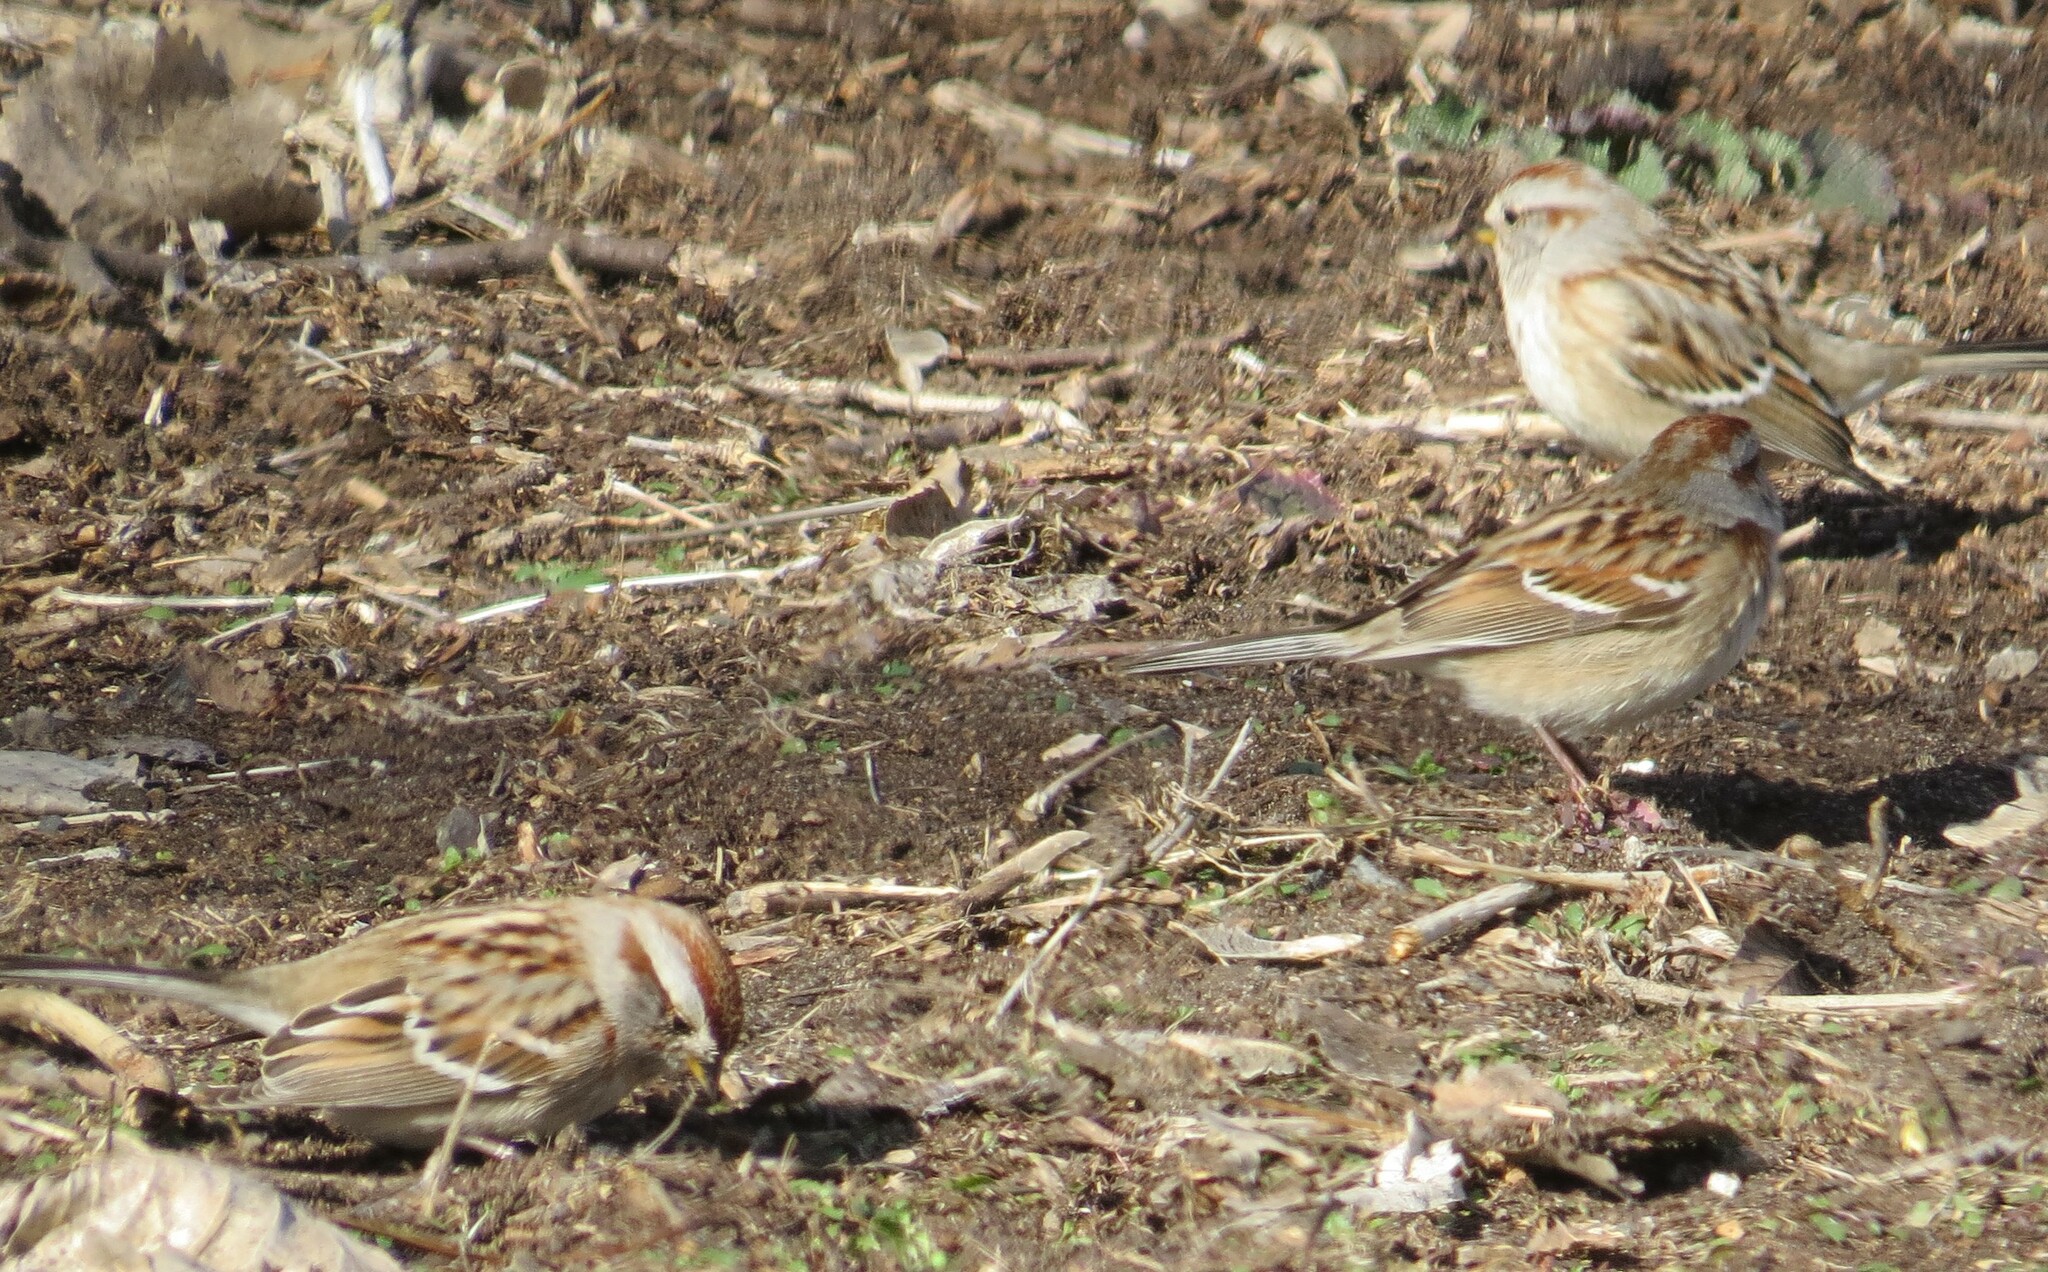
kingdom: Animalia
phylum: Chordata
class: Aves
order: Passeriformes
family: Passerellidae
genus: Spizelloides
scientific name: Spizelloides arborea
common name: American tree sparrow
